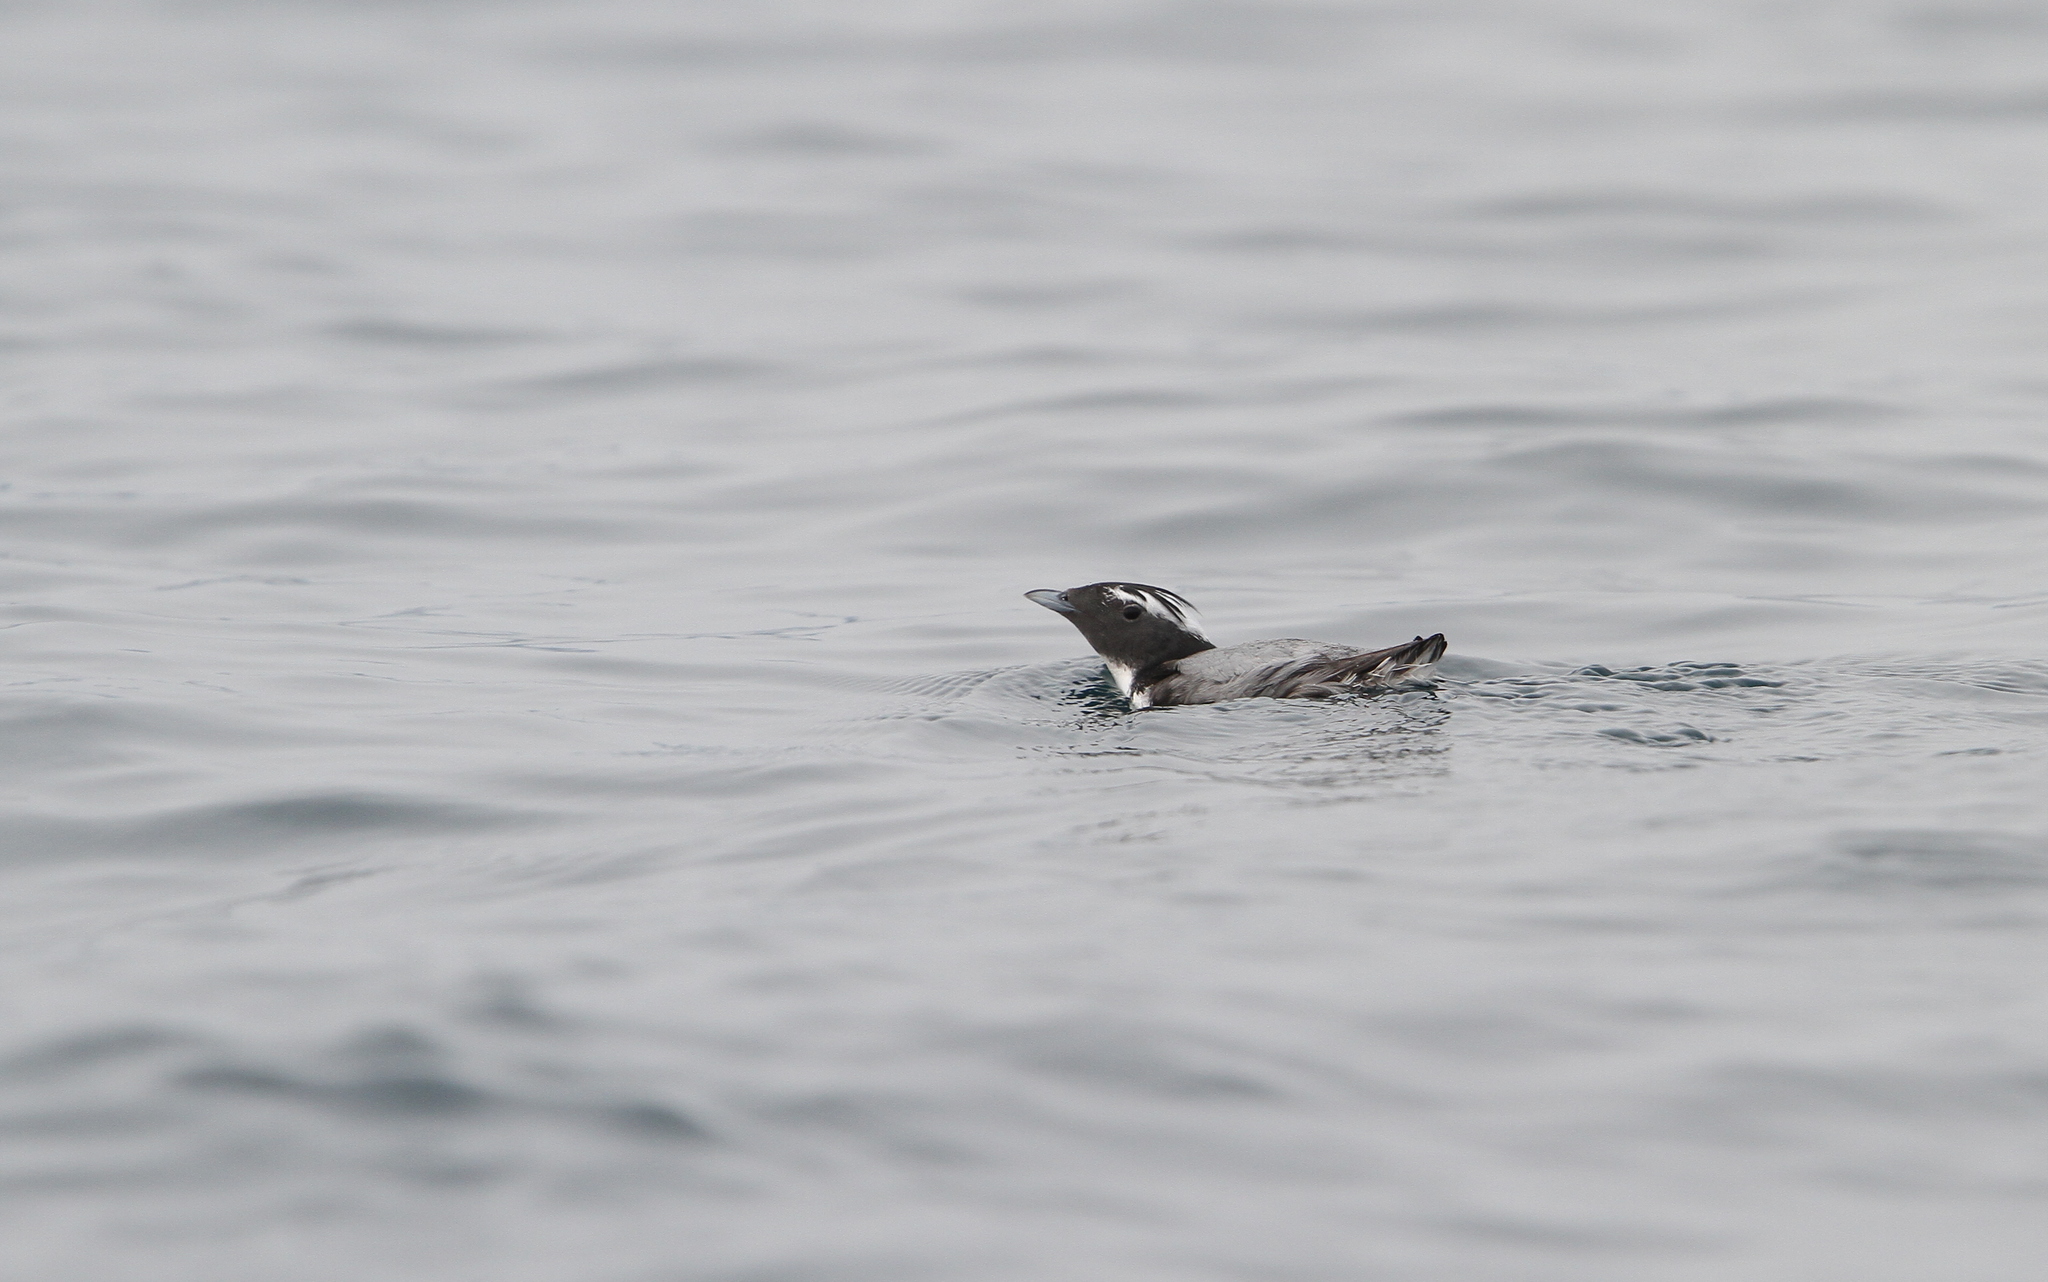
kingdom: Animalia
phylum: Chordata
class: Aves
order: Charadriiformes
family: Alcidae
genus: Synthliboramphus
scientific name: Synthliboramphus wumizusume
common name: Japanese murrelet
